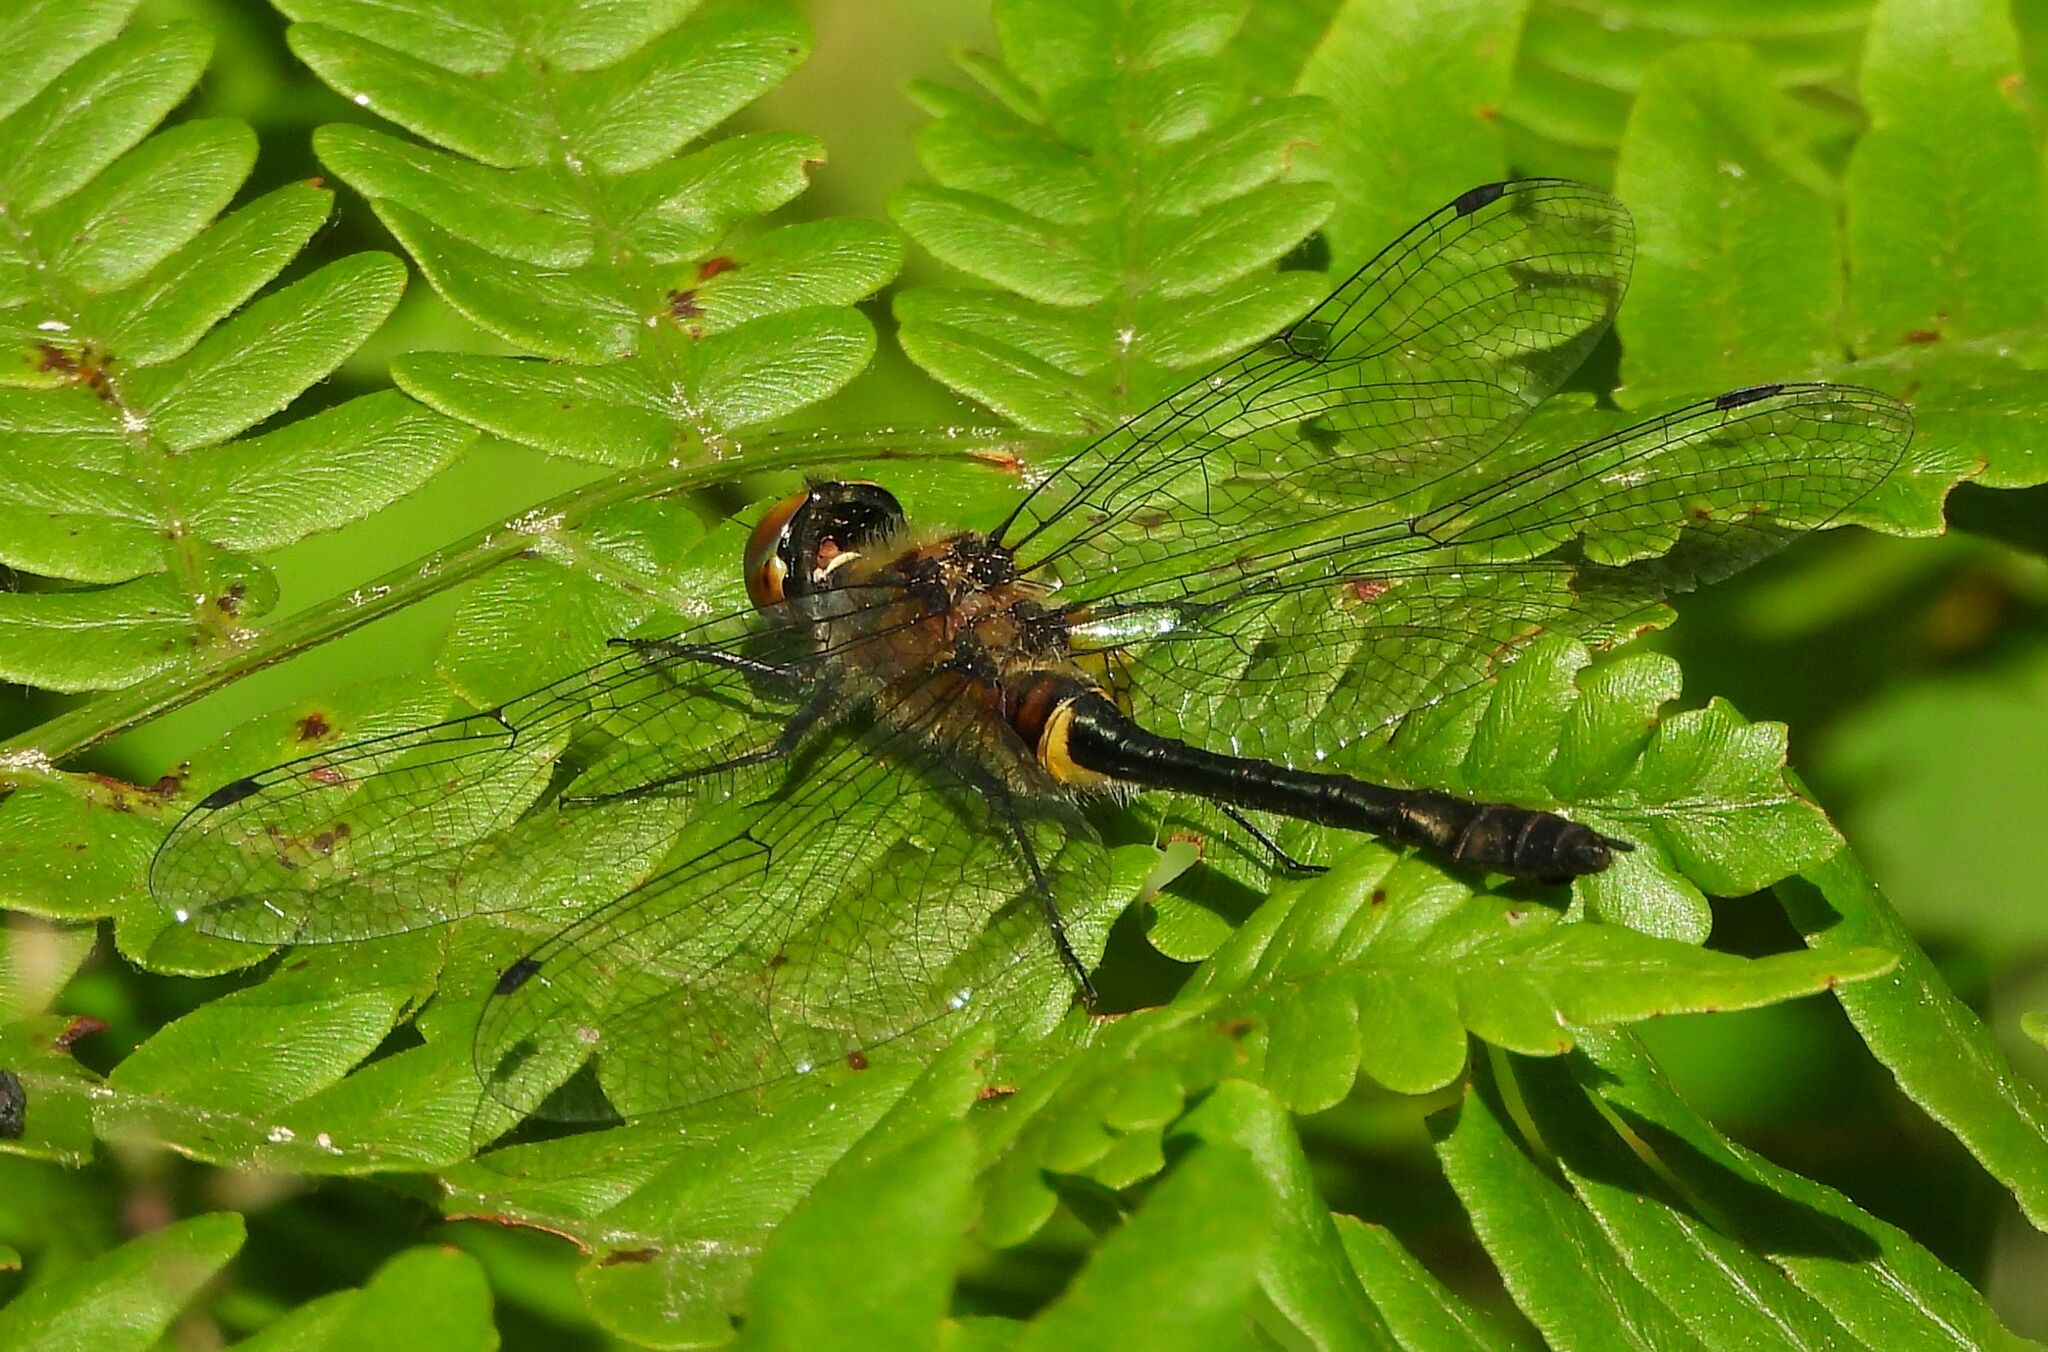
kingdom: Animalia
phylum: Arthropoda
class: Insecta
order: Odonata
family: Corduliidae
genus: Dorocordulia
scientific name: Dorocordulia libera
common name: Racket-tailed emerald
